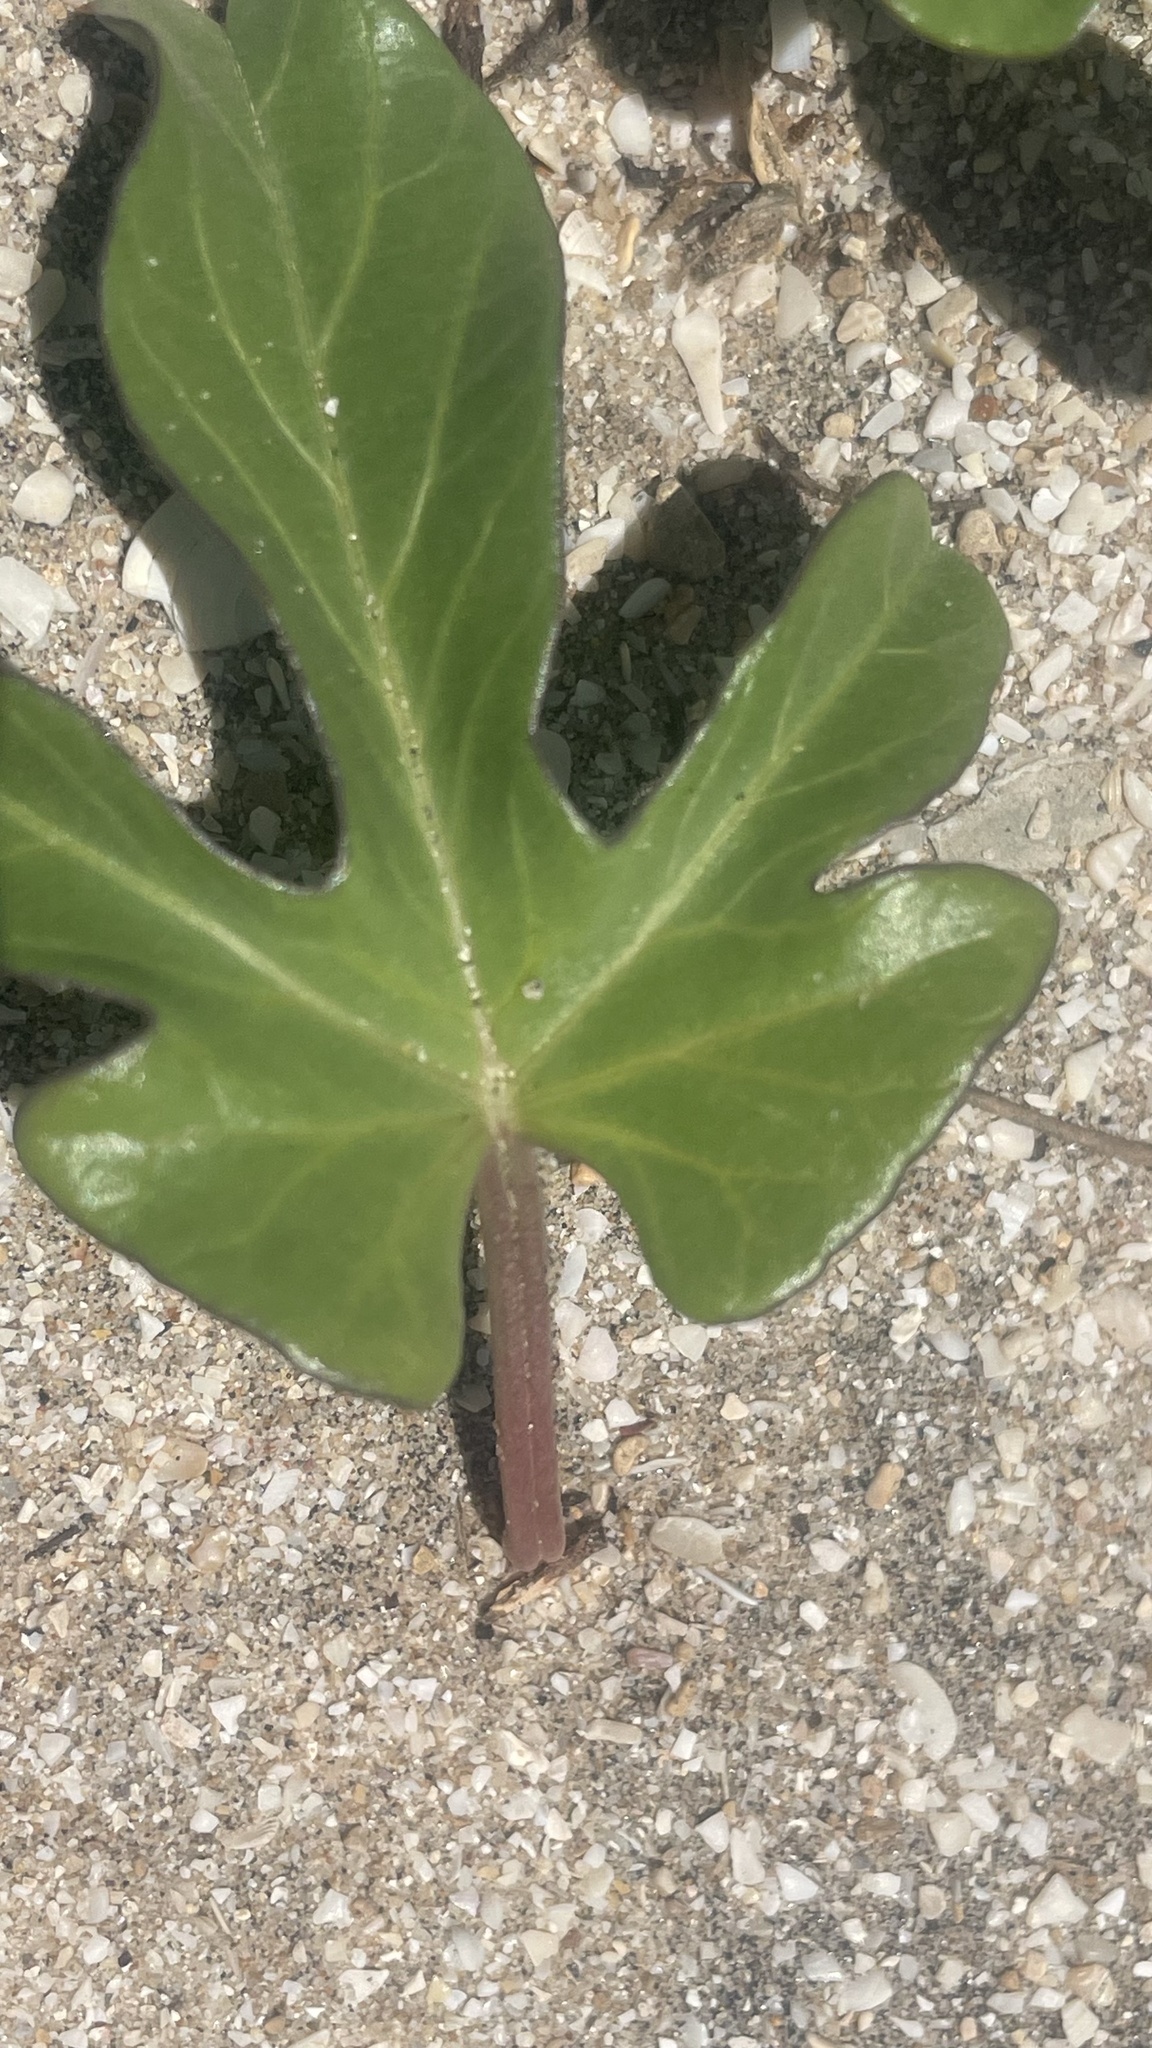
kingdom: Plantae
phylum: Tracheophyta
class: Magnoliopsida
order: Solanales
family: Convolvulaceae
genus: Ipomoea
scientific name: Ipomoea imperati
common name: Fiddle-leaf morning-glory
